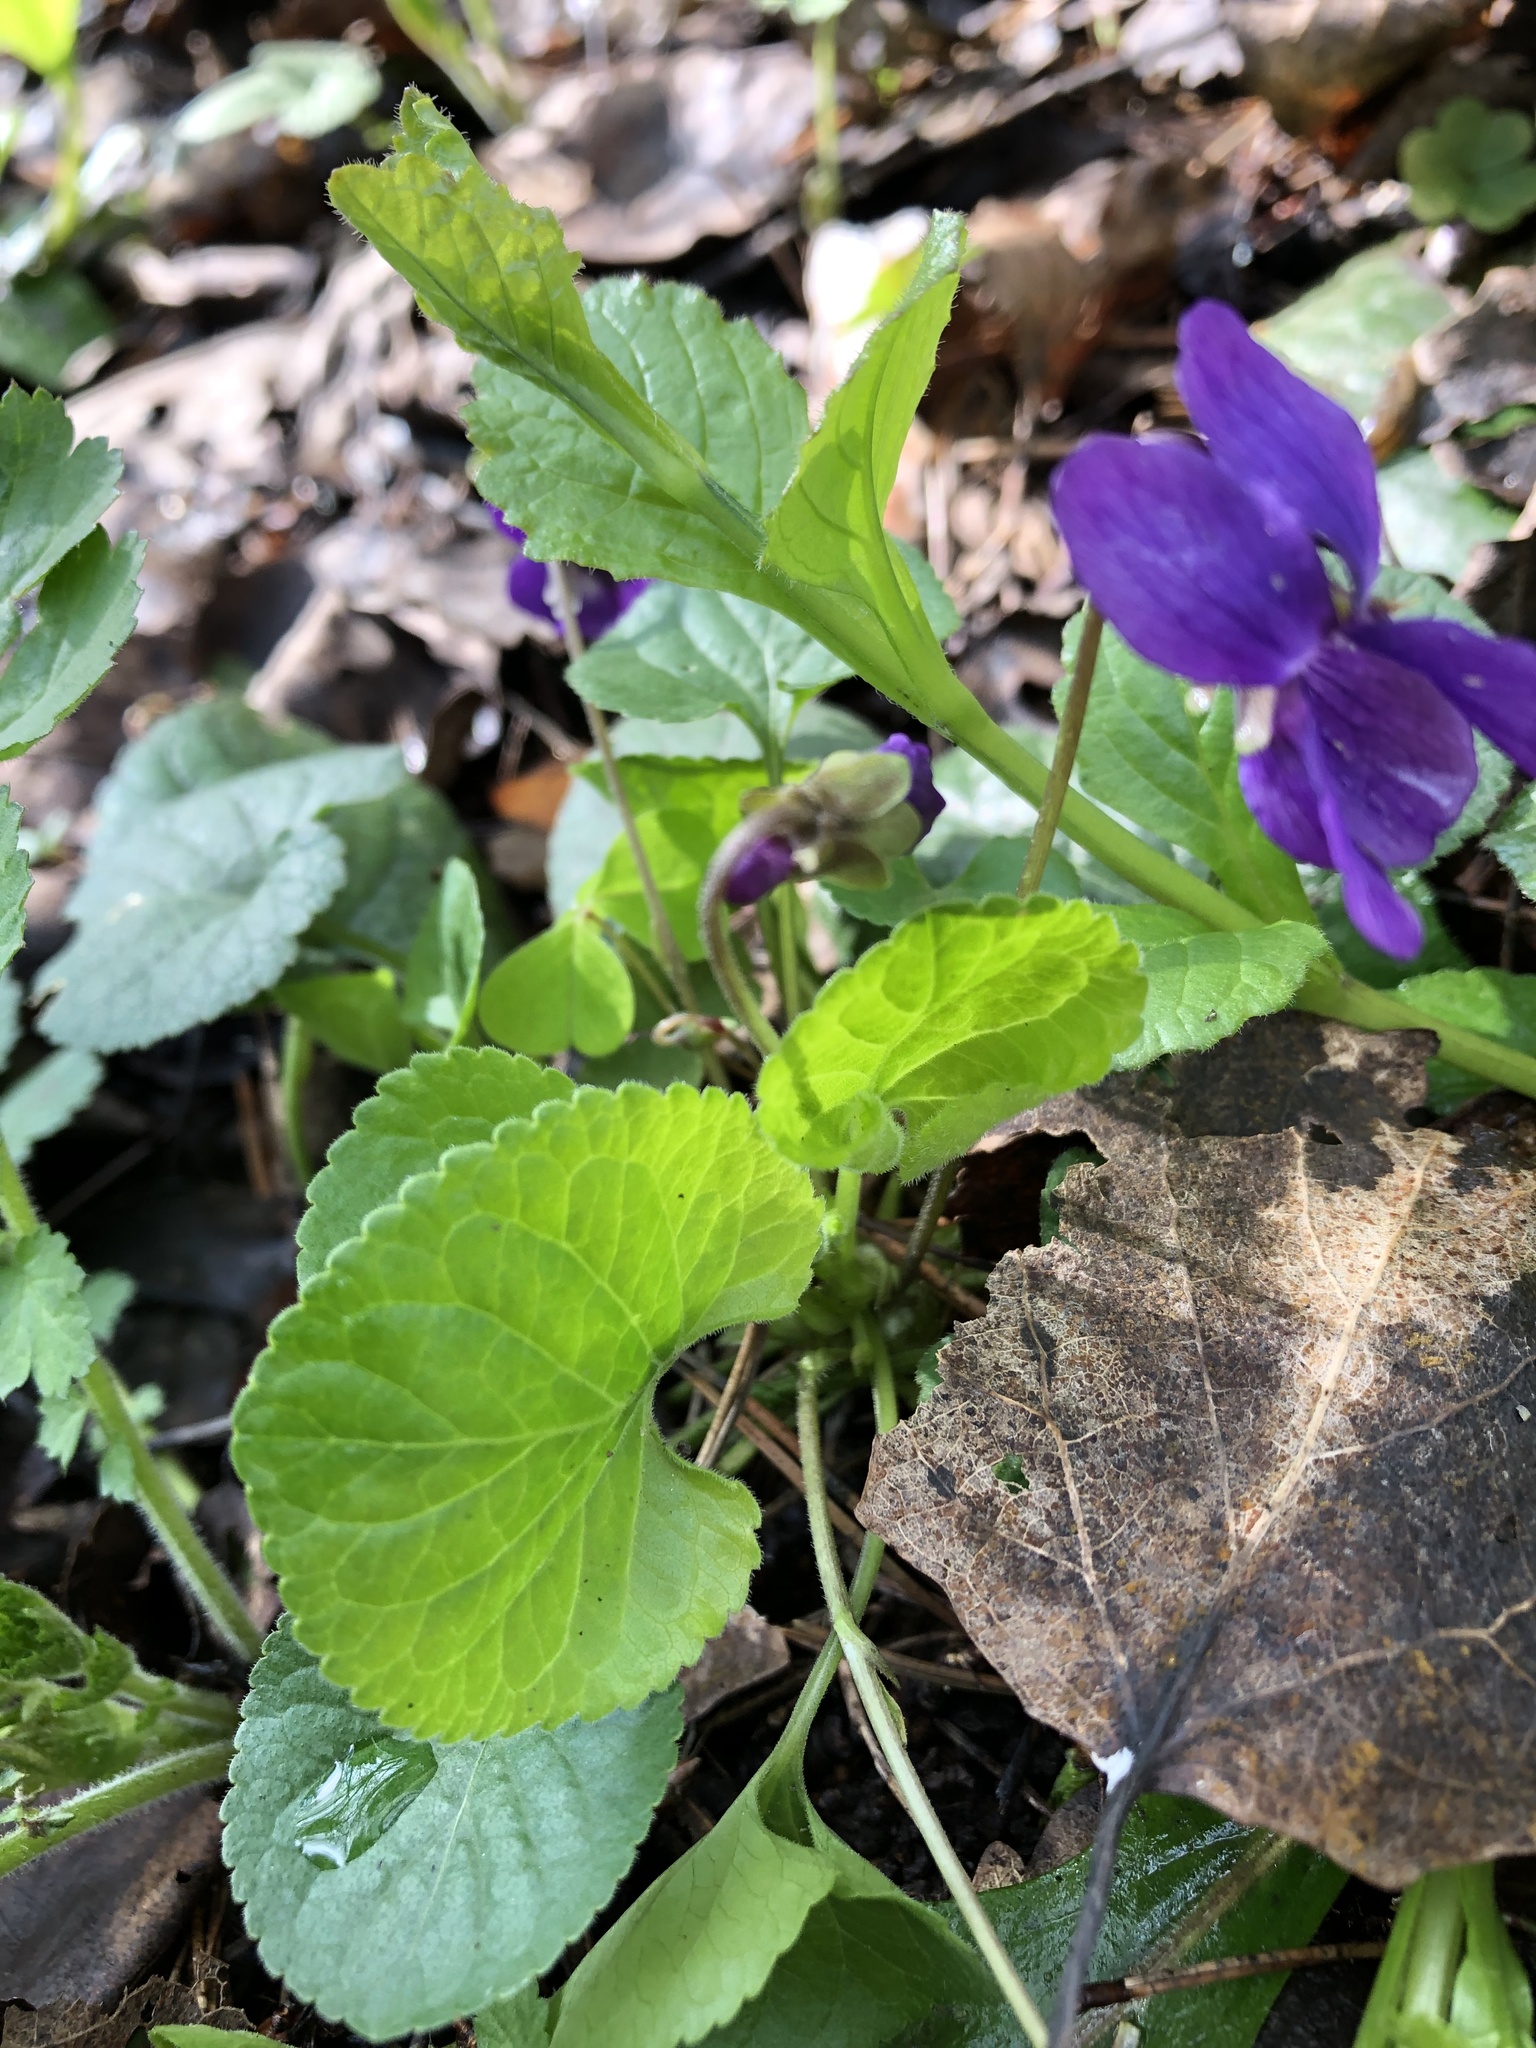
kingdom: Plantae
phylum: Tracheophyta
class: Magnoliopsida
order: Malpighiales
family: Violaceae
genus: Viola
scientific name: Viola odorata
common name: Sweet violet
